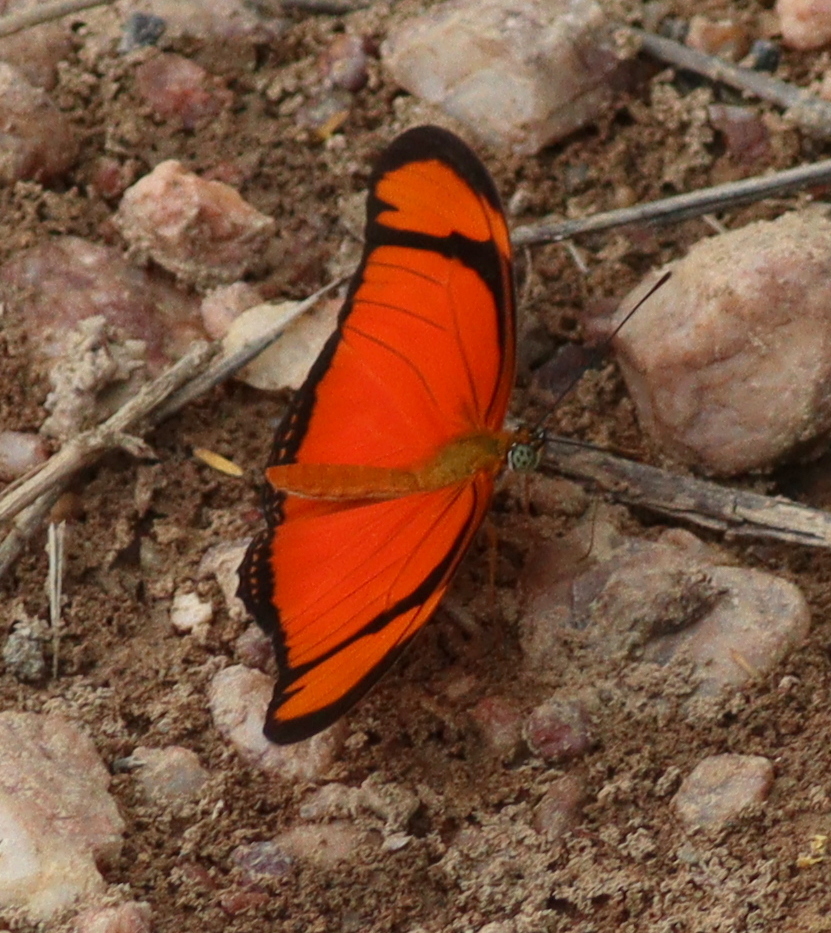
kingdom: Animalia
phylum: Arthropoda
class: Insecta
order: Lepidoptera
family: Nymphalidae
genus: Dryas
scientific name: Dryas iulia
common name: Flambeau
